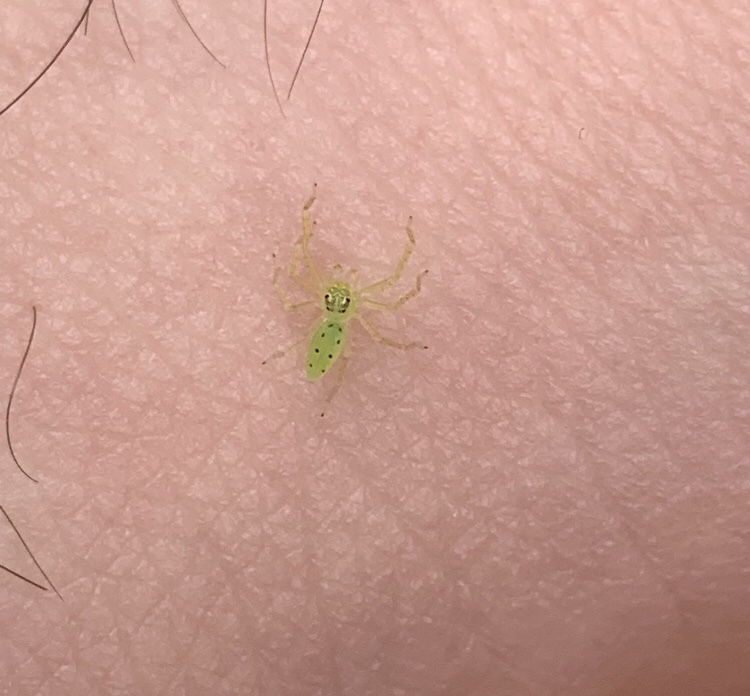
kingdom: Animalia
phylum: Arthropoda
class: Arachnida
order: Araneae
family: Salticidae
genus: Lyssomanes
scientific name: Lyssomanes viridis
